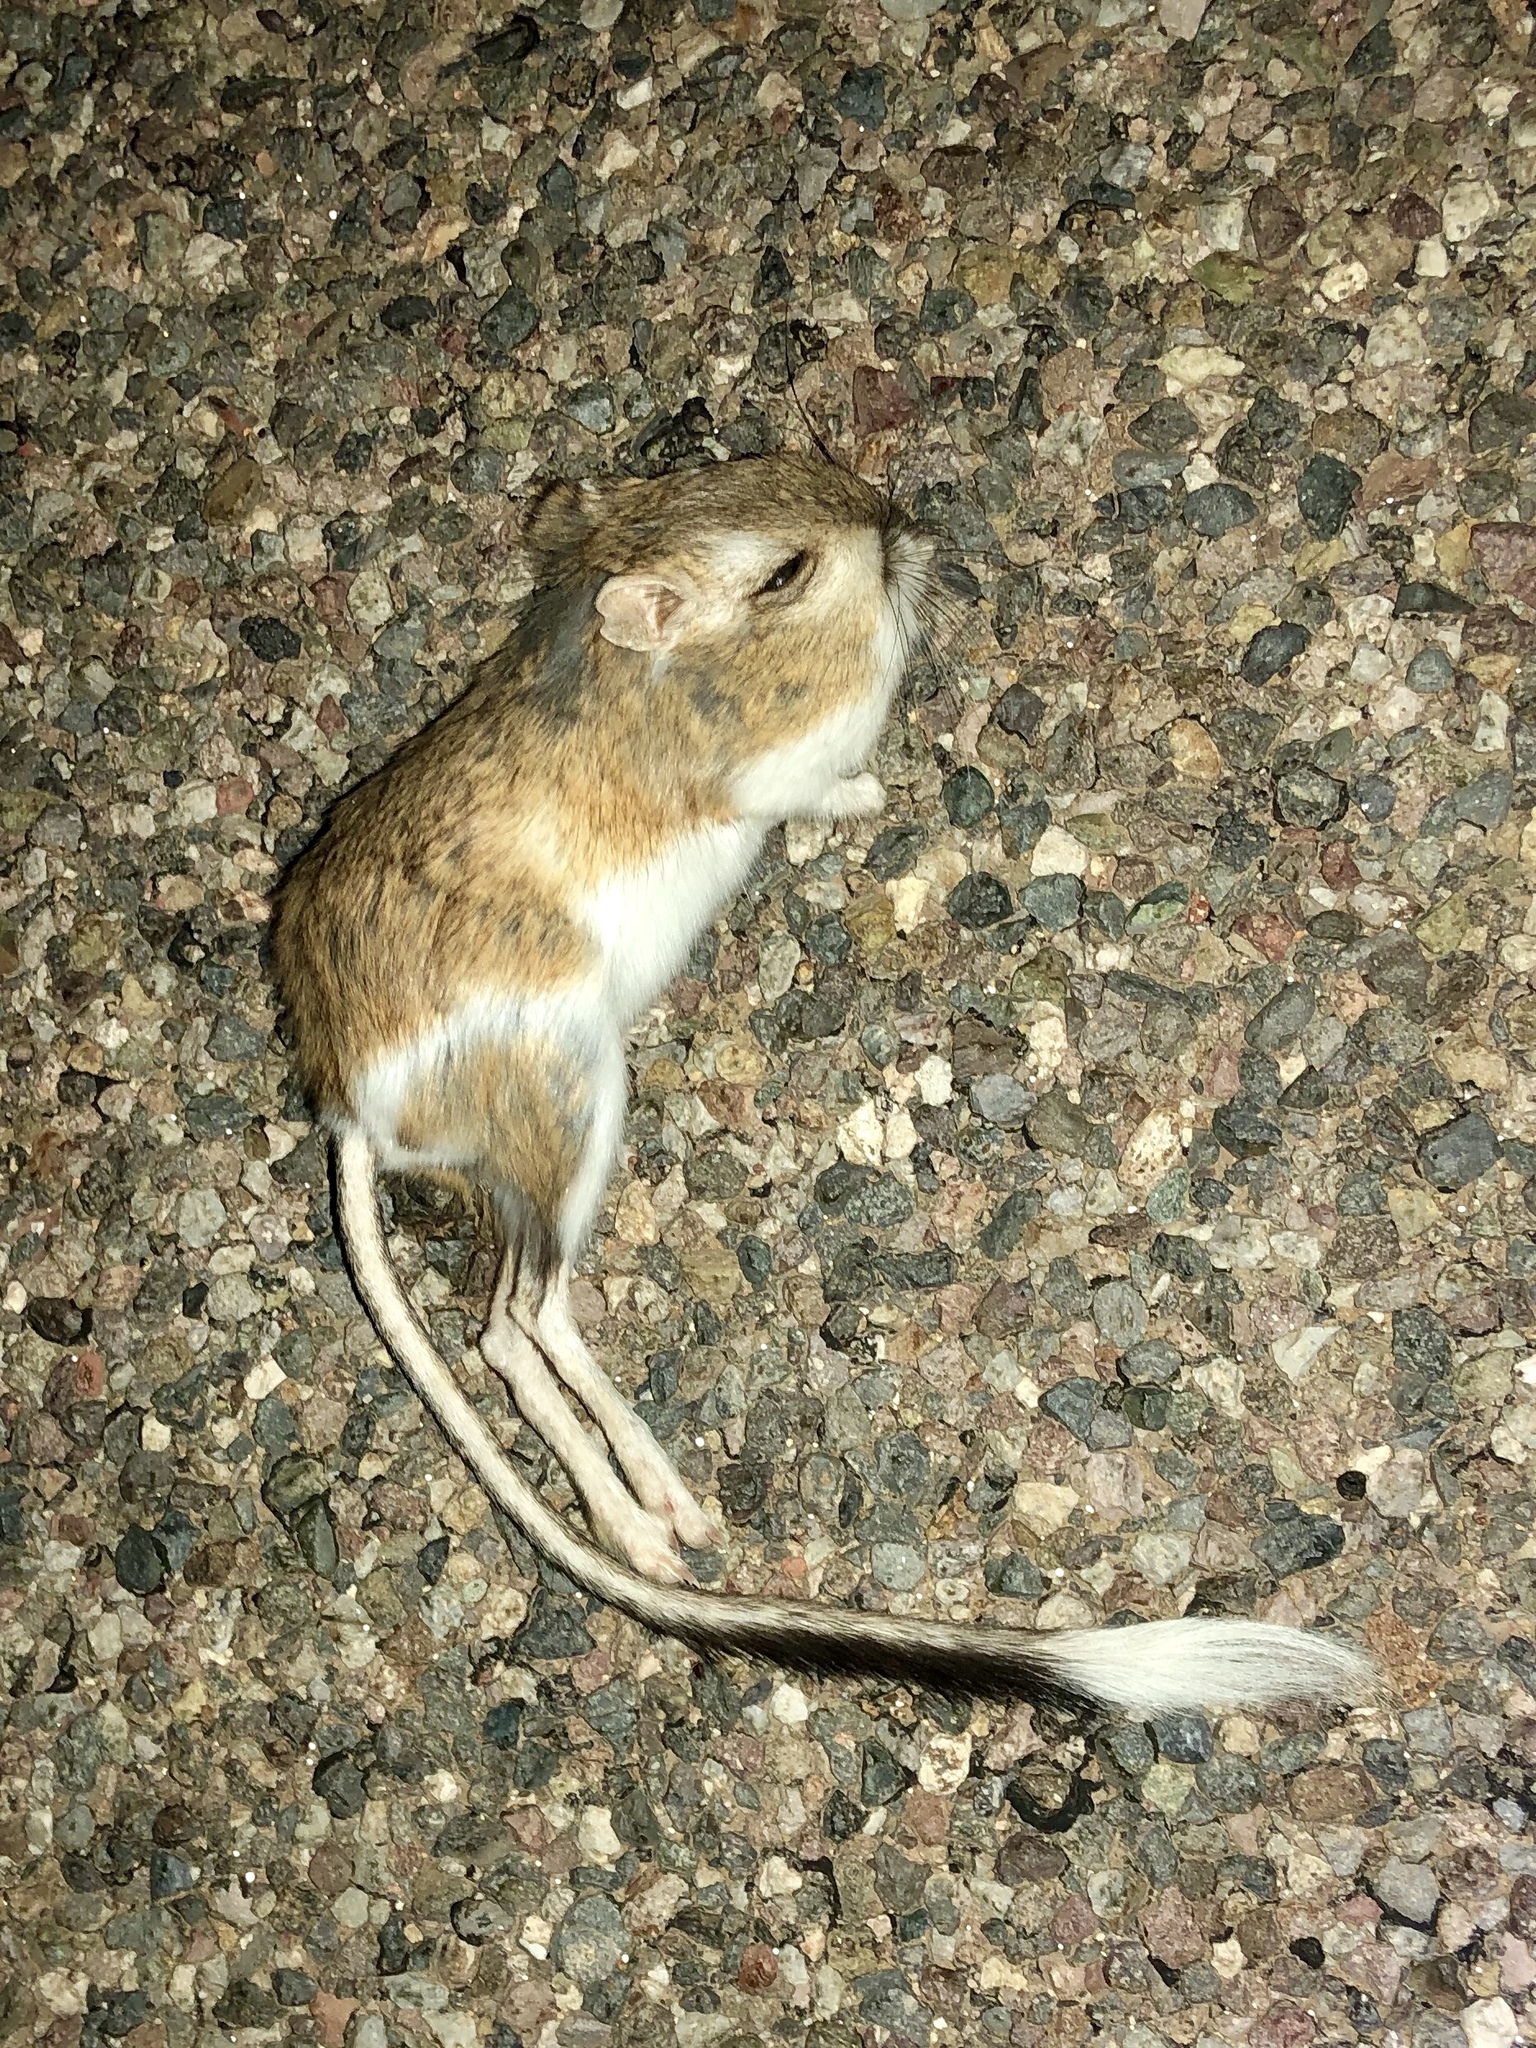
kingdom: Animalia
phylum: Chordata
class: Mammalia
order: Rodentia
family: Heteromyidae
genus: Dipodomys
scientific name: Dipodomys spectabilis
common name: Banner-tailed kangaroo rat
